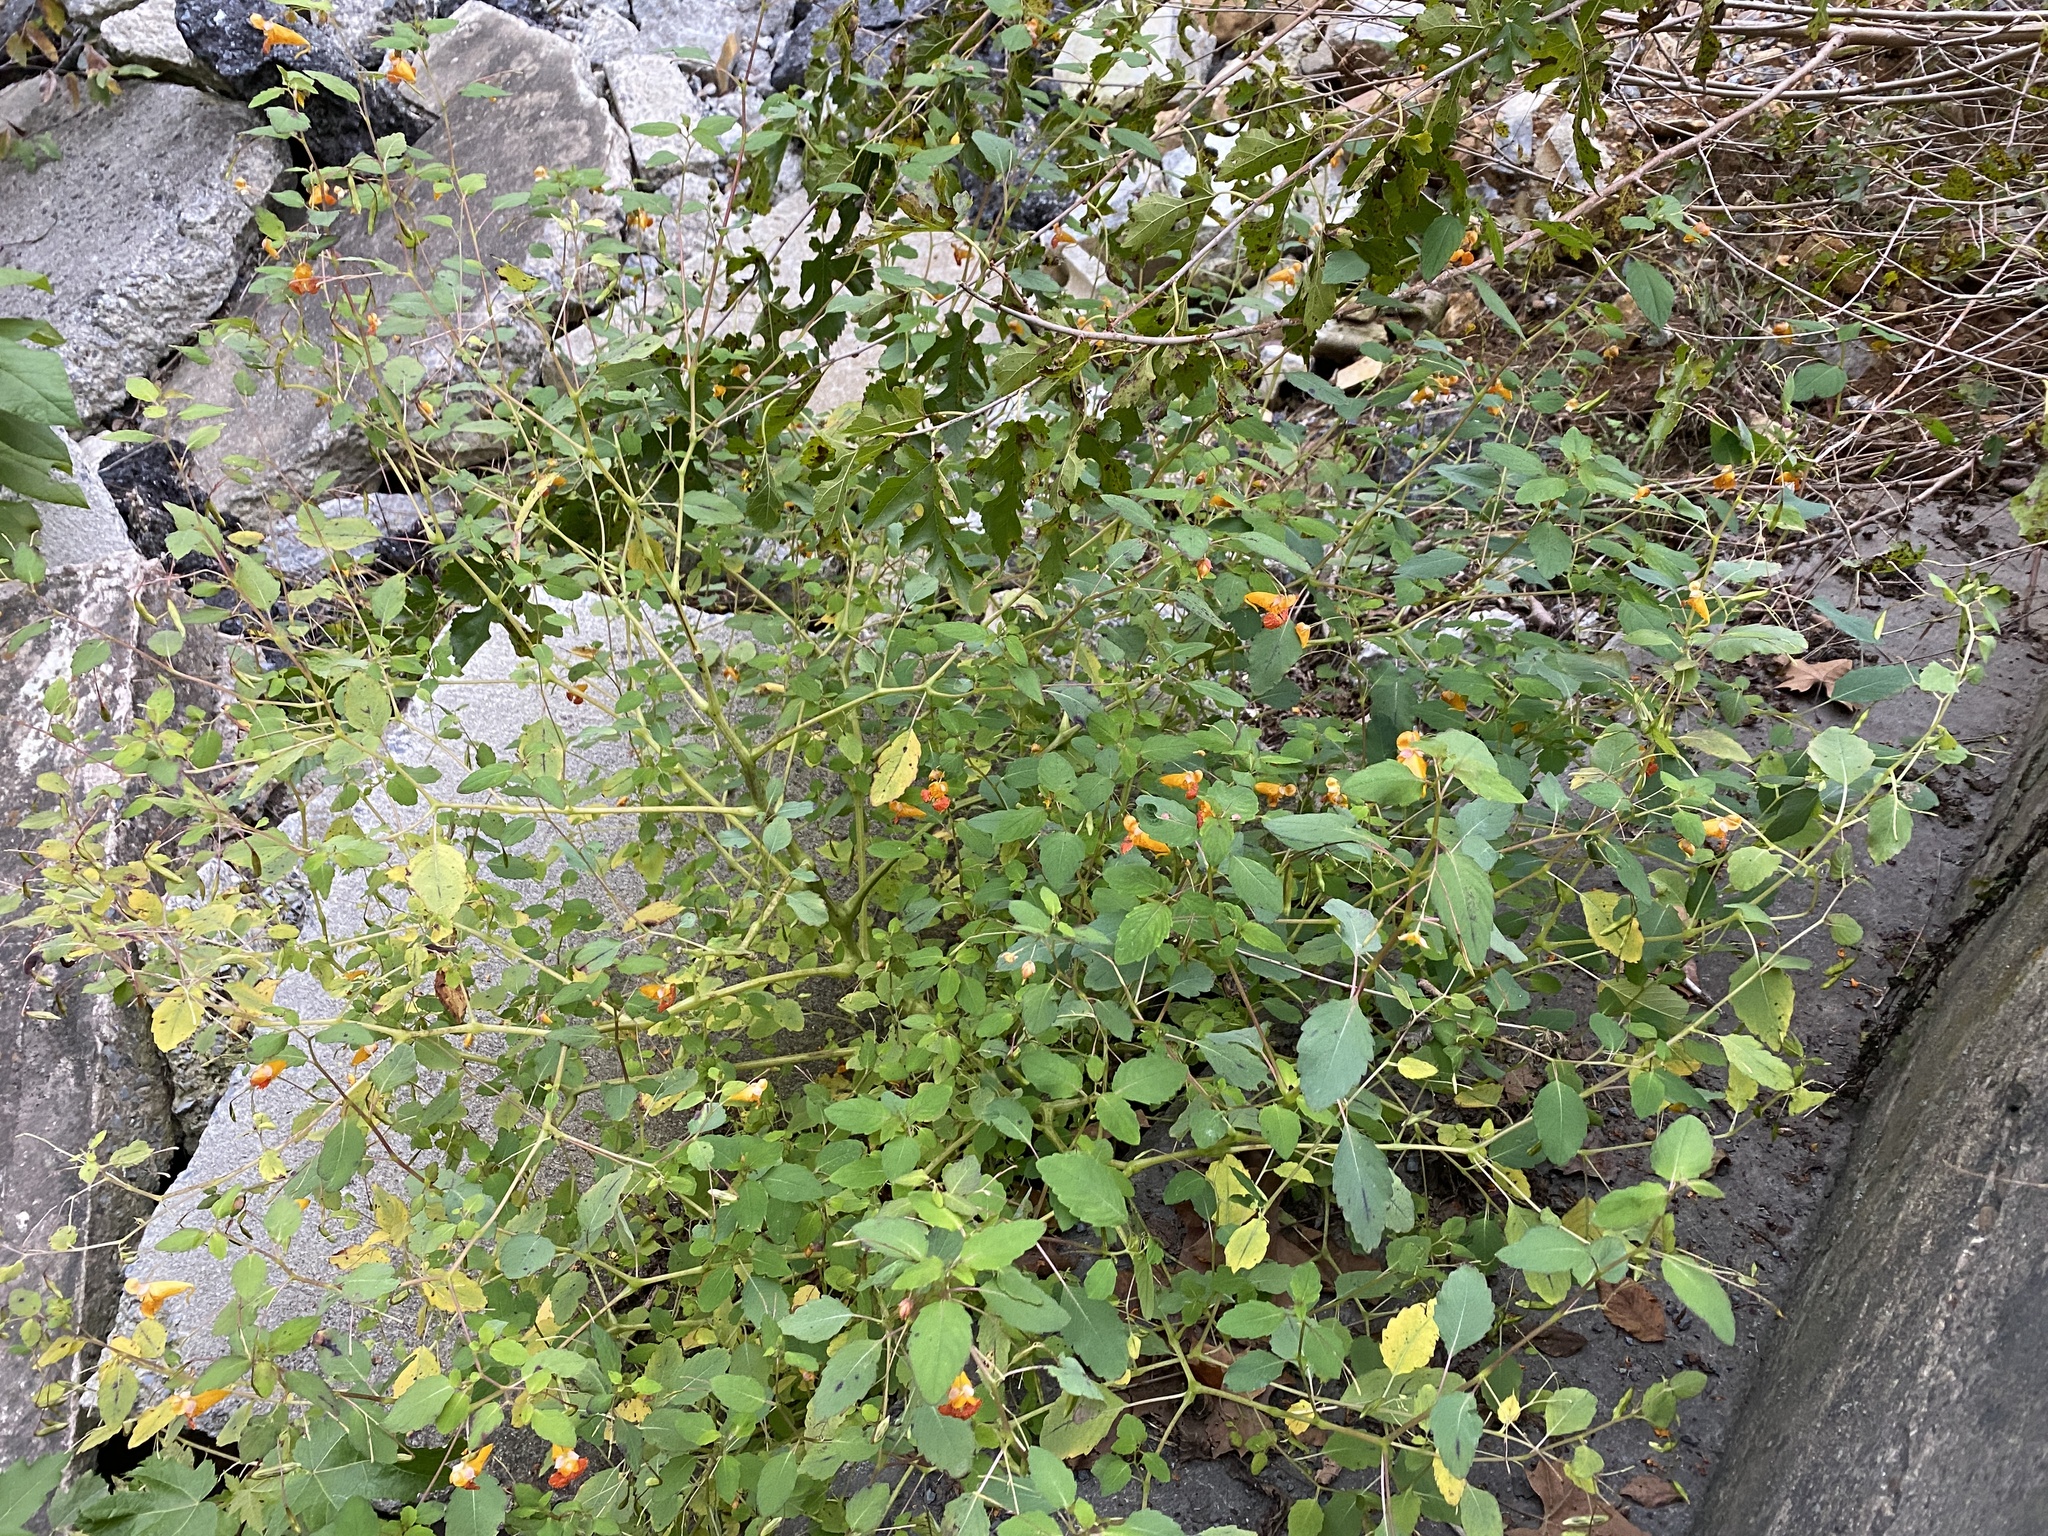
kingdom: Plantae
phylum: Tracheophyta
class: Magnoliopsida
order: Ericales
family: Balsaminaceae
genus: Impatiens
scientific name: Impatiens capensis
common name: Orange balsam
